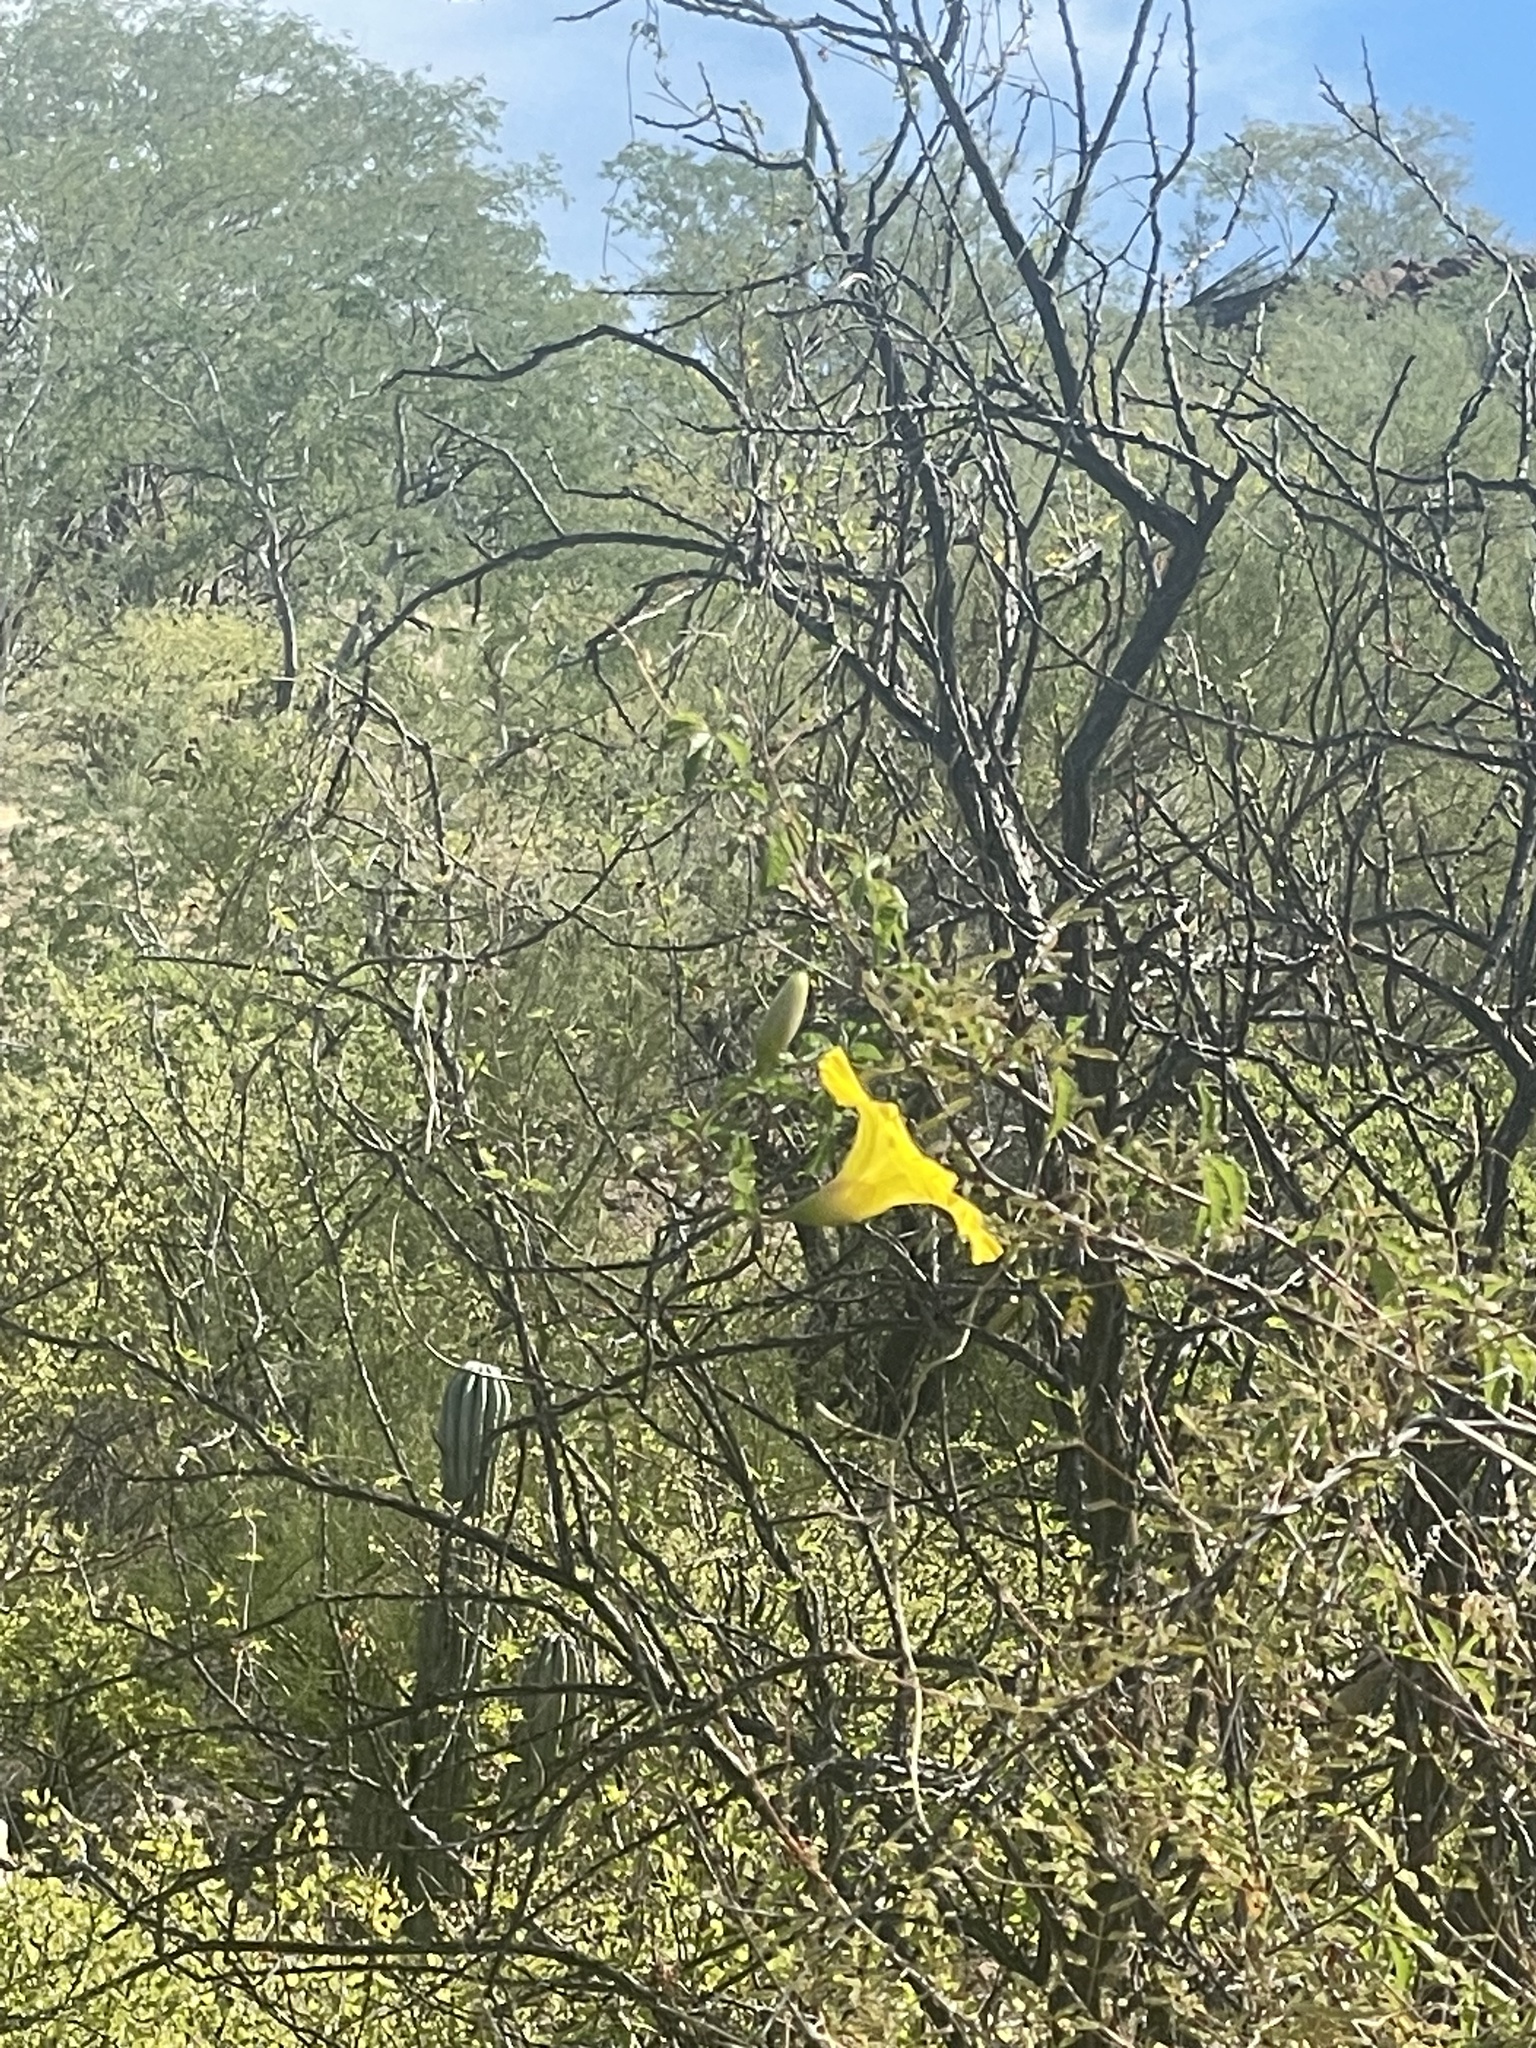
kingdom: Plantae
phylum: Tracheophyta
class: Magnoliopsida
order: Solanales
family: Convolvulaceae
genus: Distimake
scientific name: Distimake aureus
